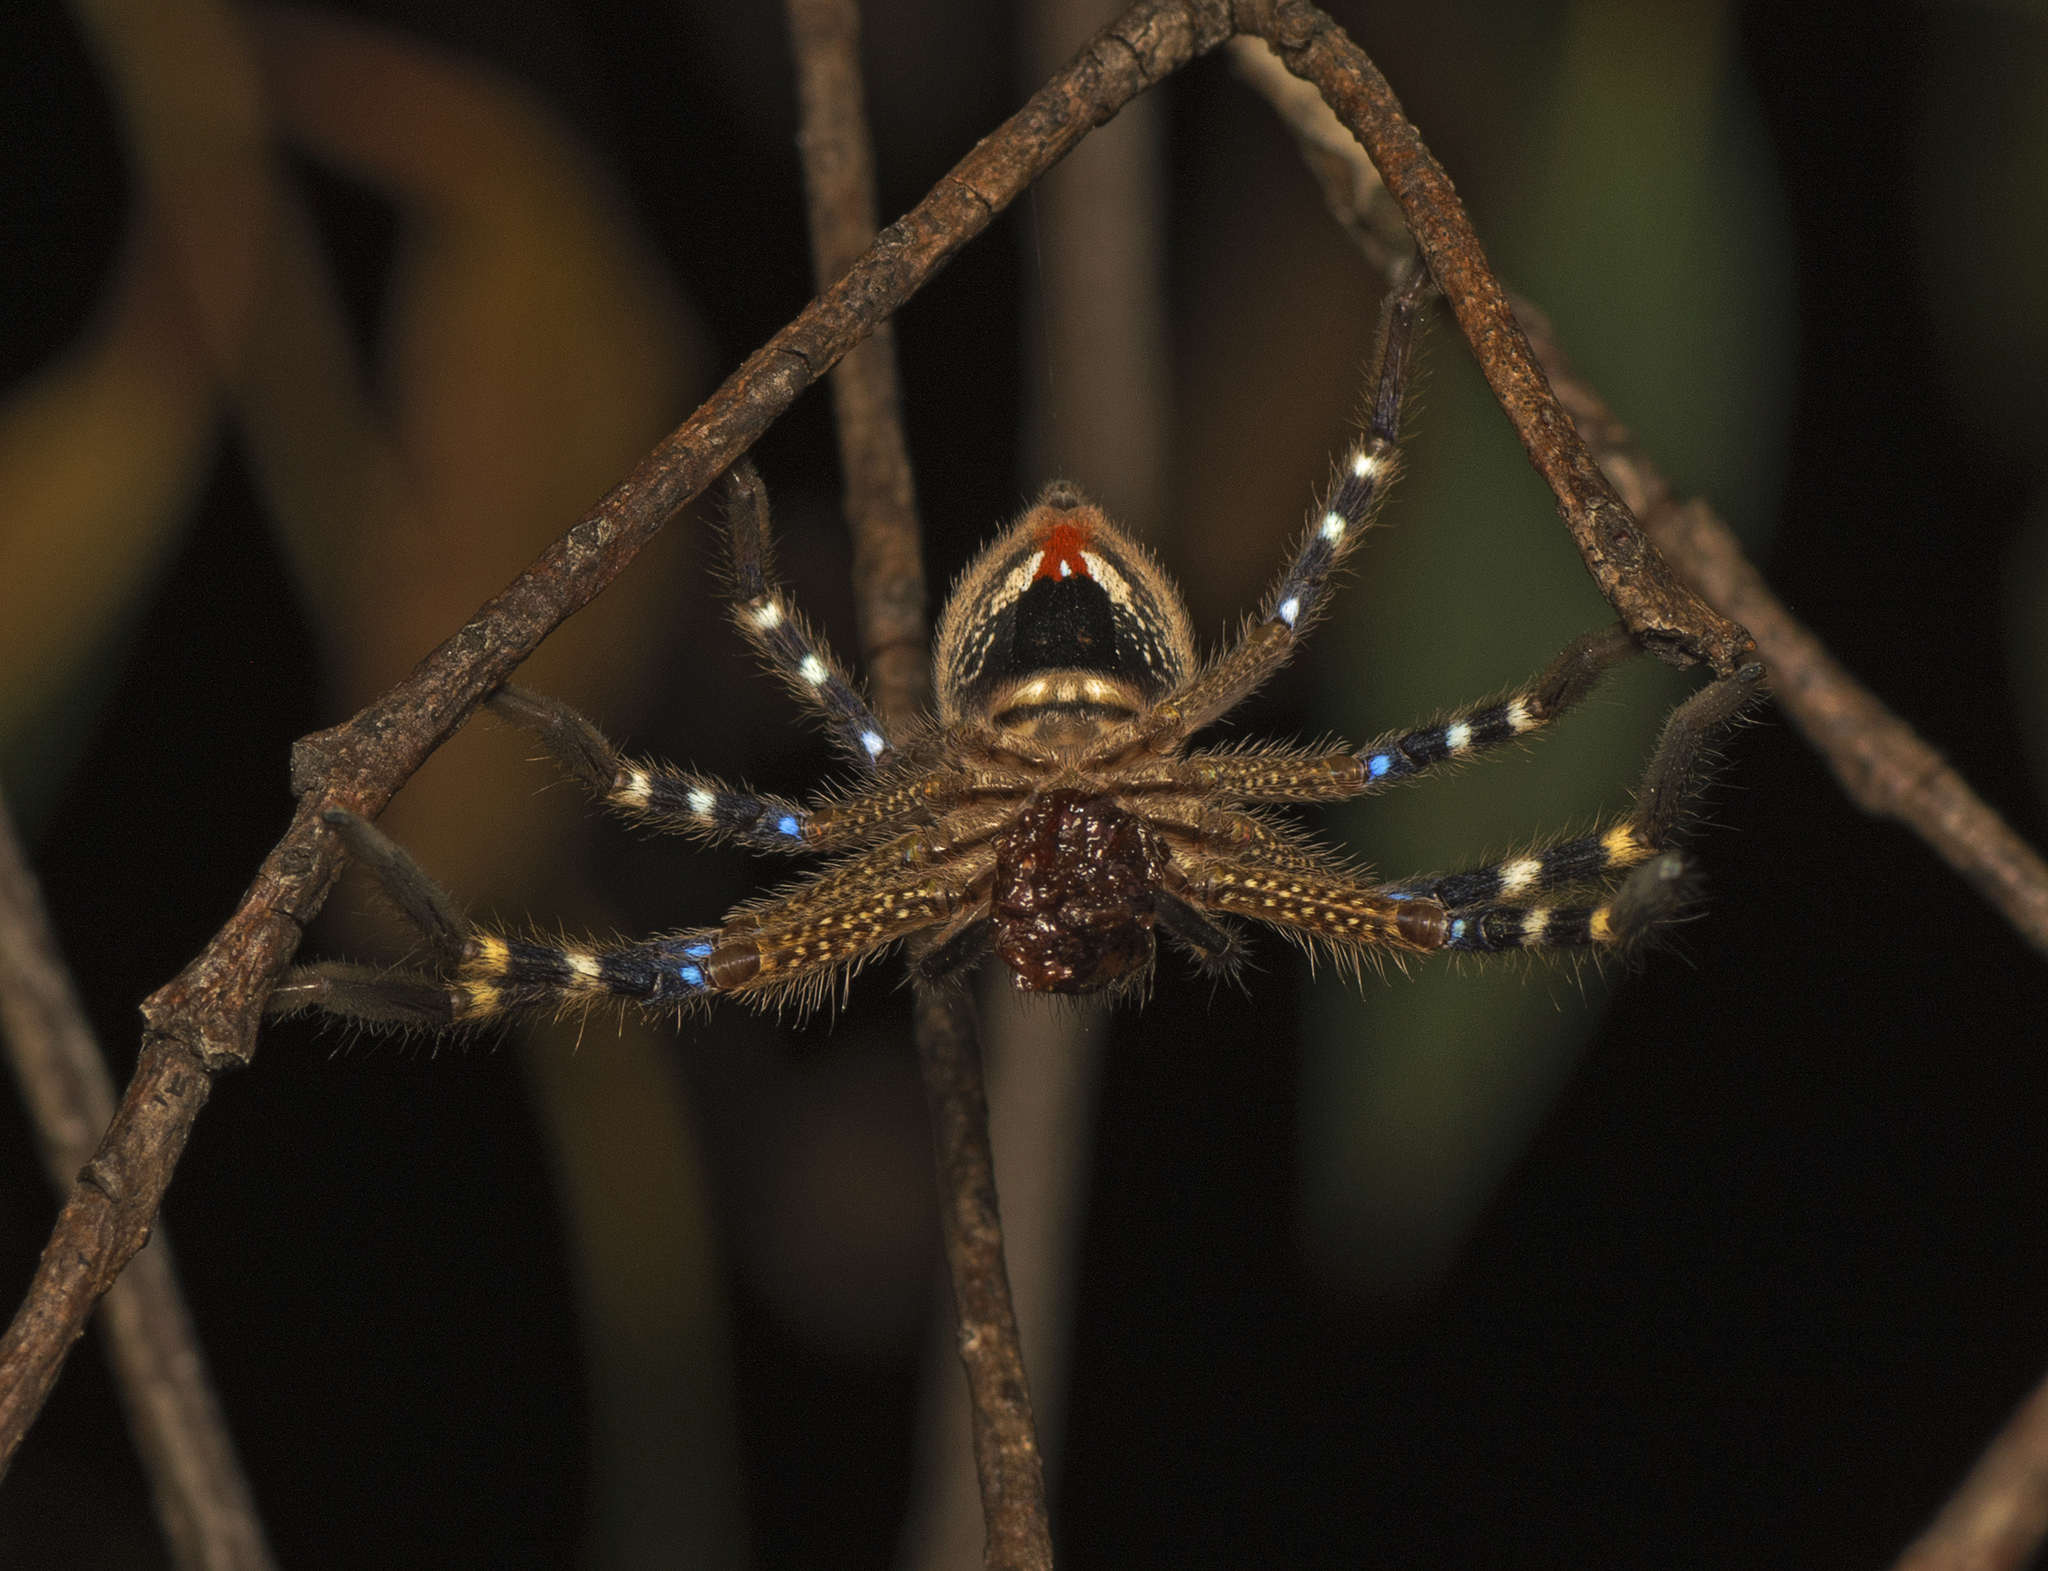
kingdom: Animalia
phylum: Arthropoda
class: Arachnida
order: Araneae
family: Sparassidae
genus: Neosparassus
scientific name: Neosparassus calligaster
